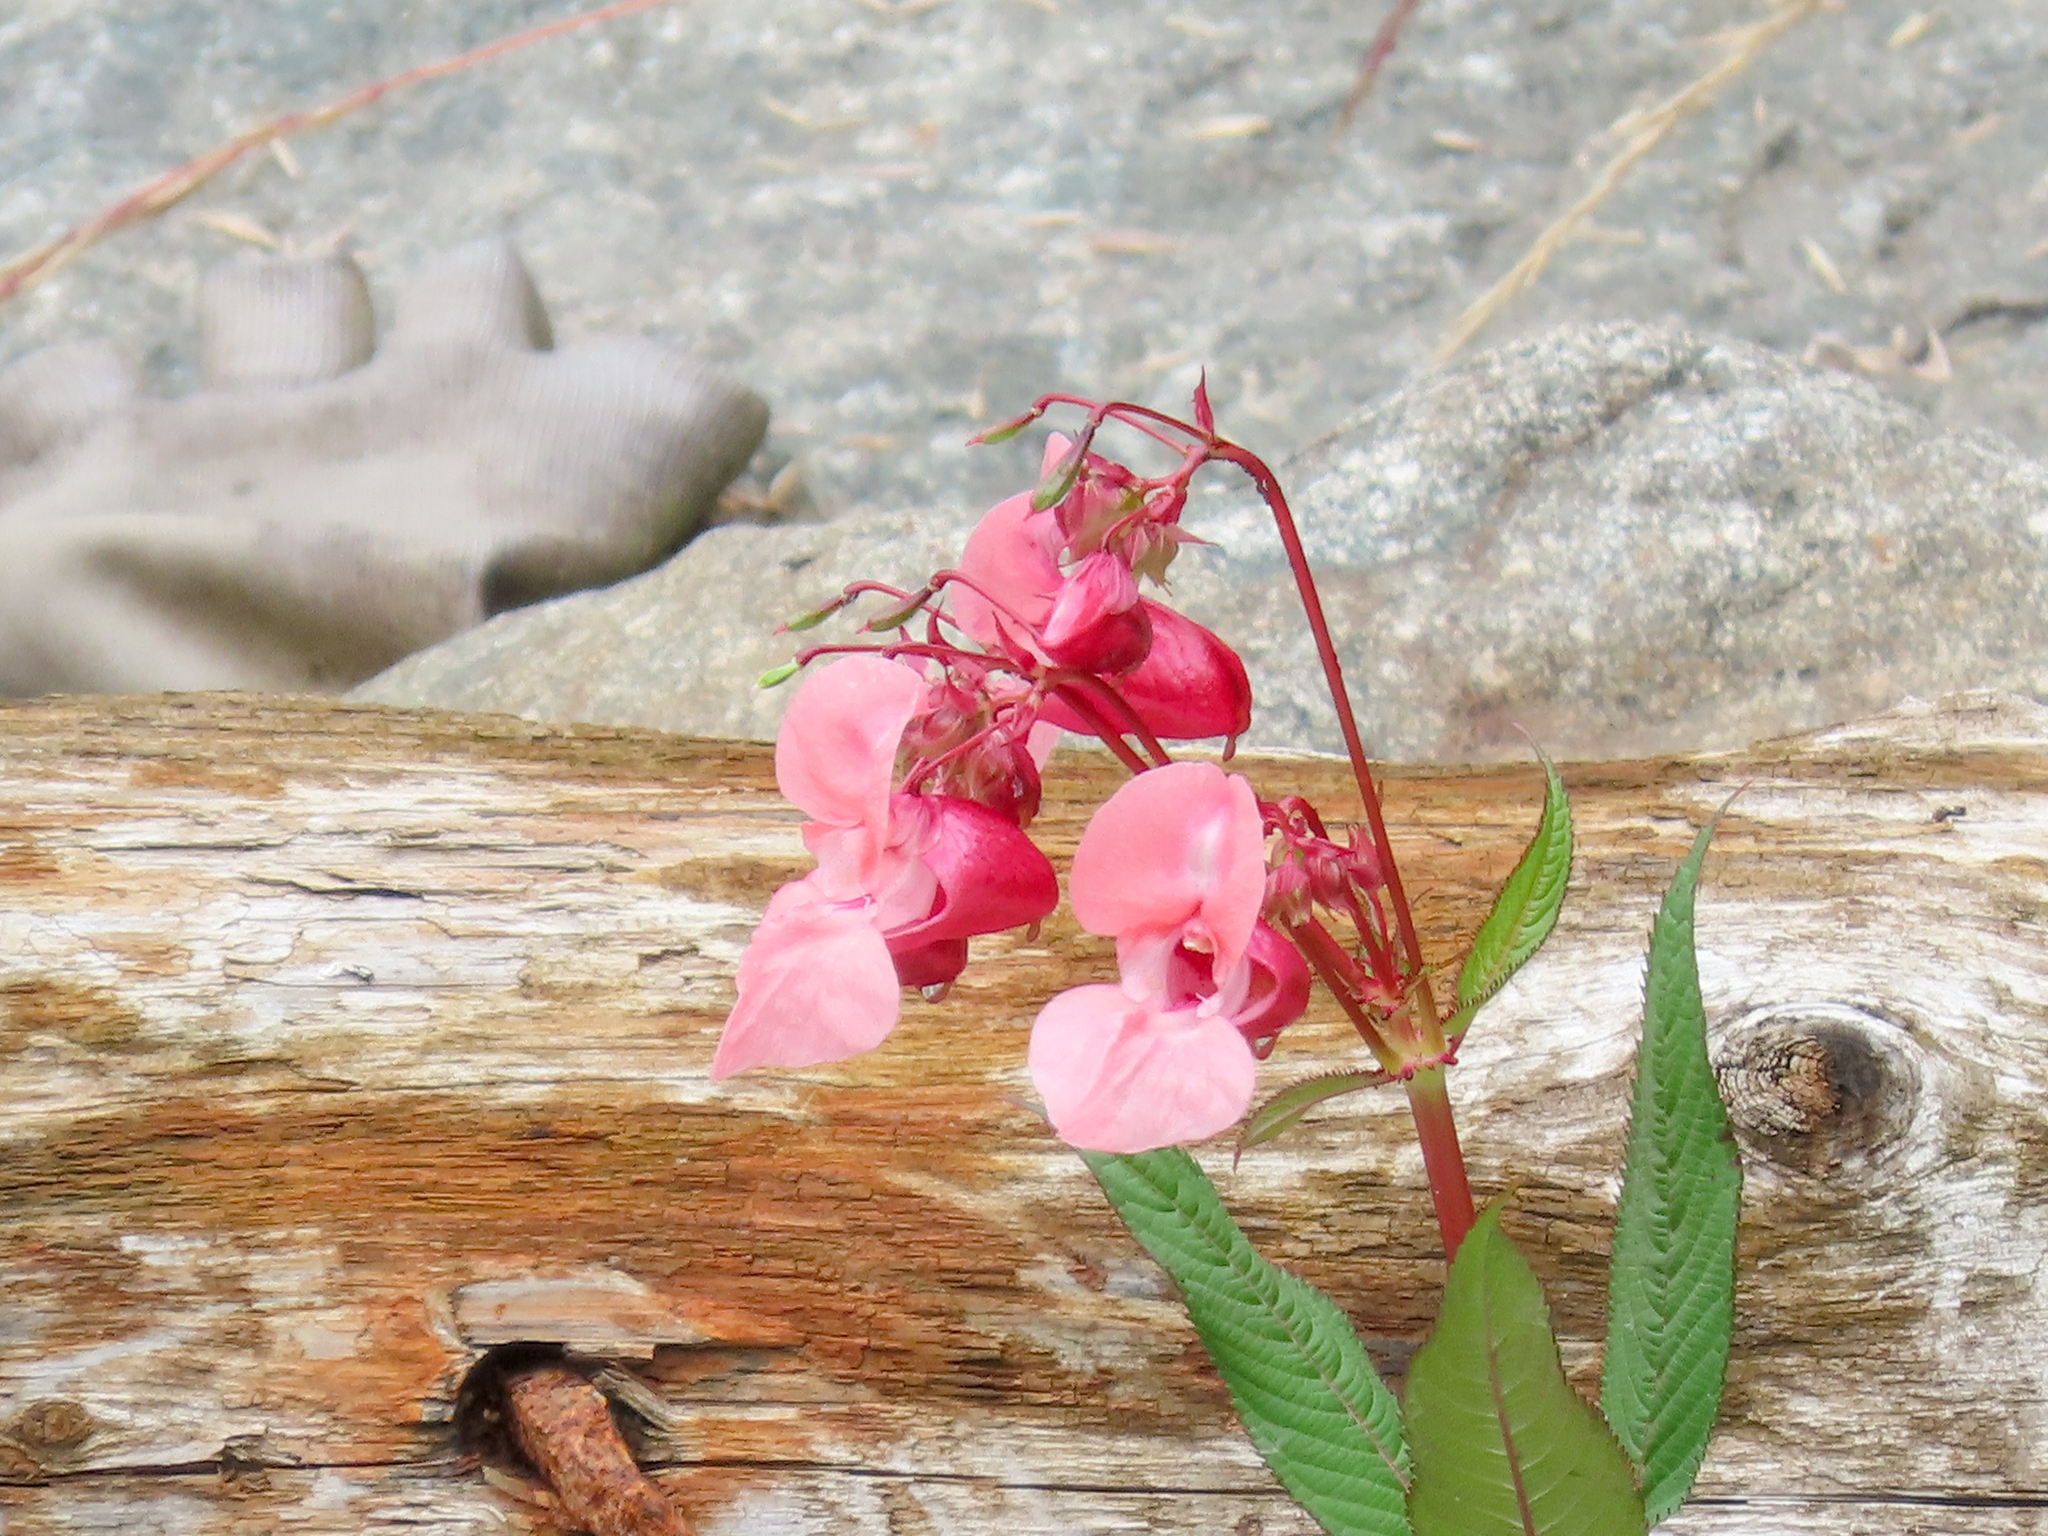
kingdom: Plantae
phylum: Tracheophyta
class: Magnoliopsida
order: Ericales
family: Balsaminaceae
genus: Impatiens
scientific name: Impatiens glandulifera
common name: Himalayan balsam
